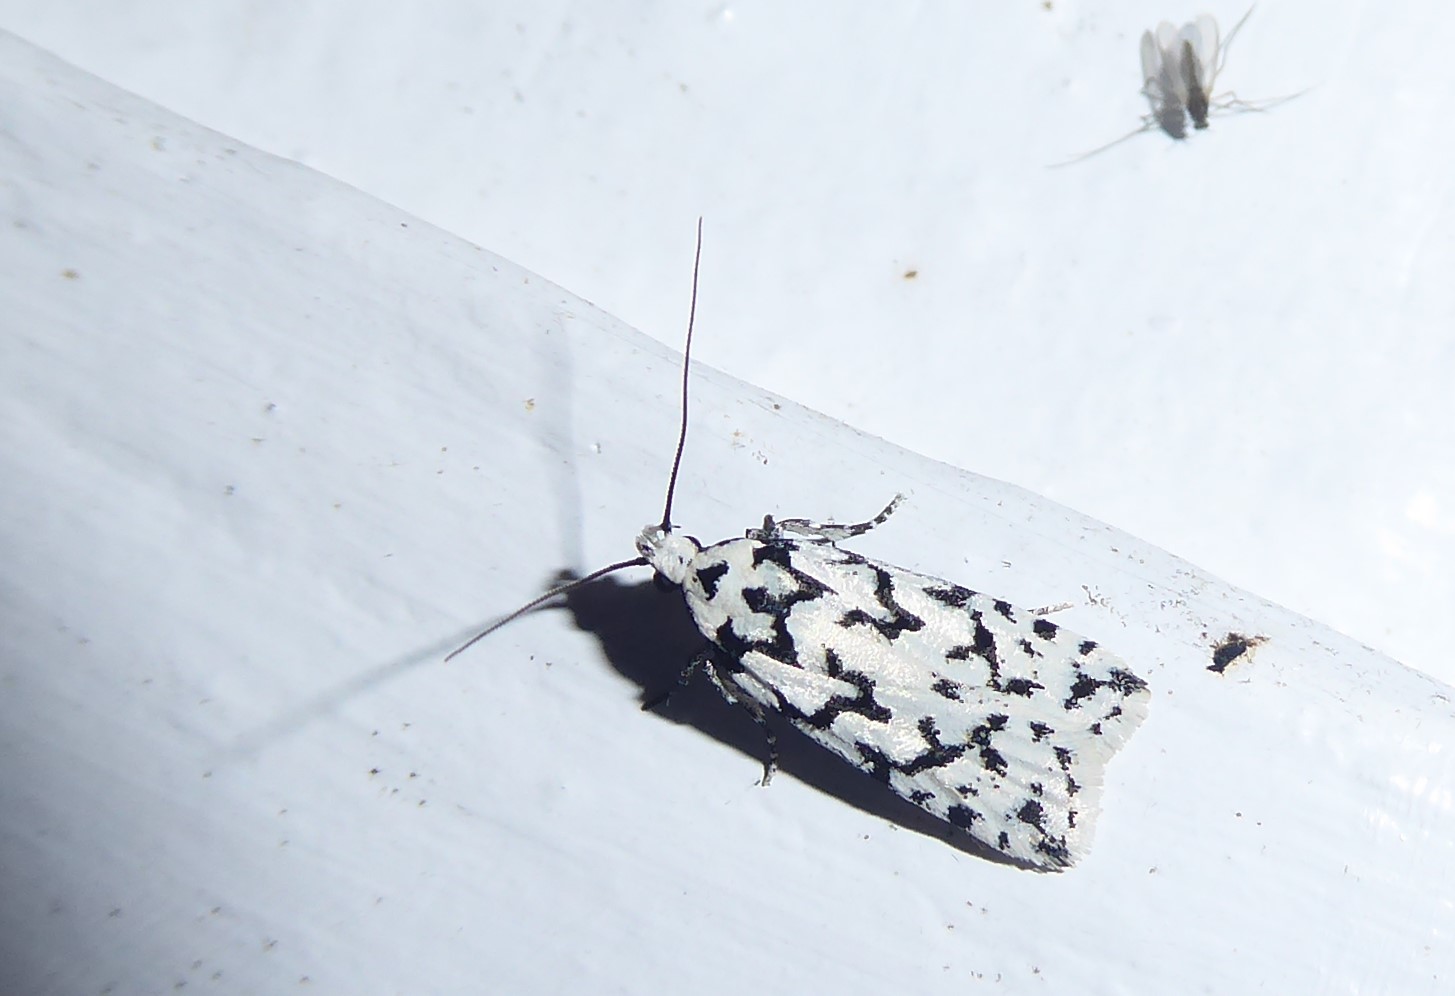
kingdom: Animalia
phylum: Arthropoda
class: Insecta
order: Lepidoptera
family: Oecophoridae
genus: Izatha
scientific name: Izatha katadiktya
